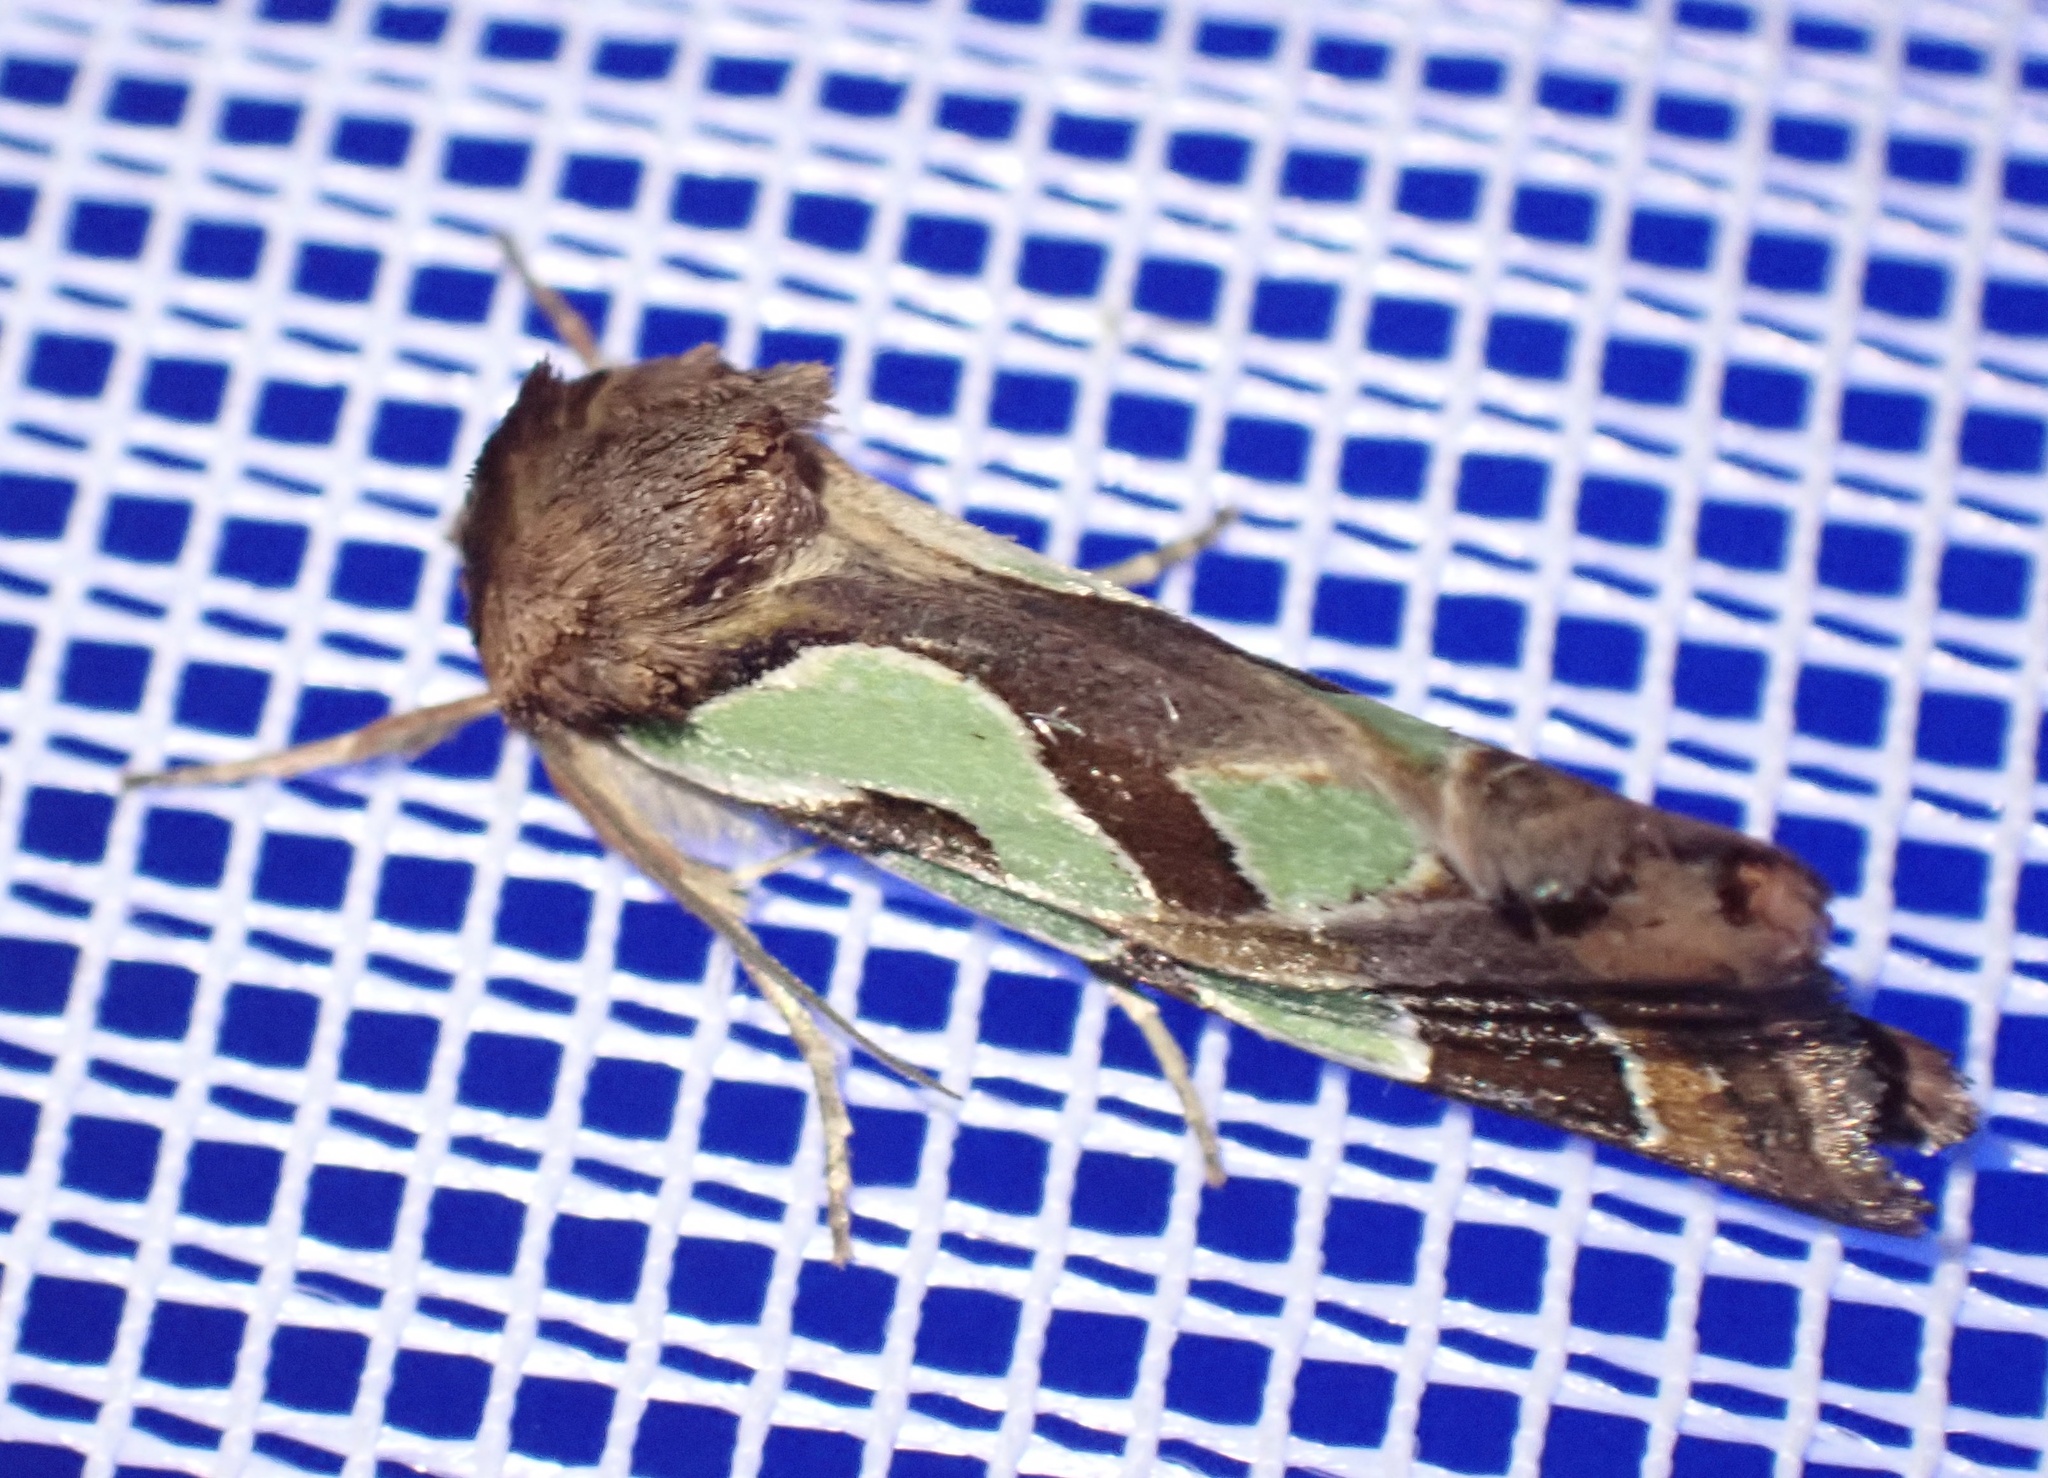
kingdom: Animalia
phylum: Arthropoda
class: Insecta
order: Lepidoptera
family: Noctuidae
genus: Cosmodes
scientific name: Cosmodes elegans
